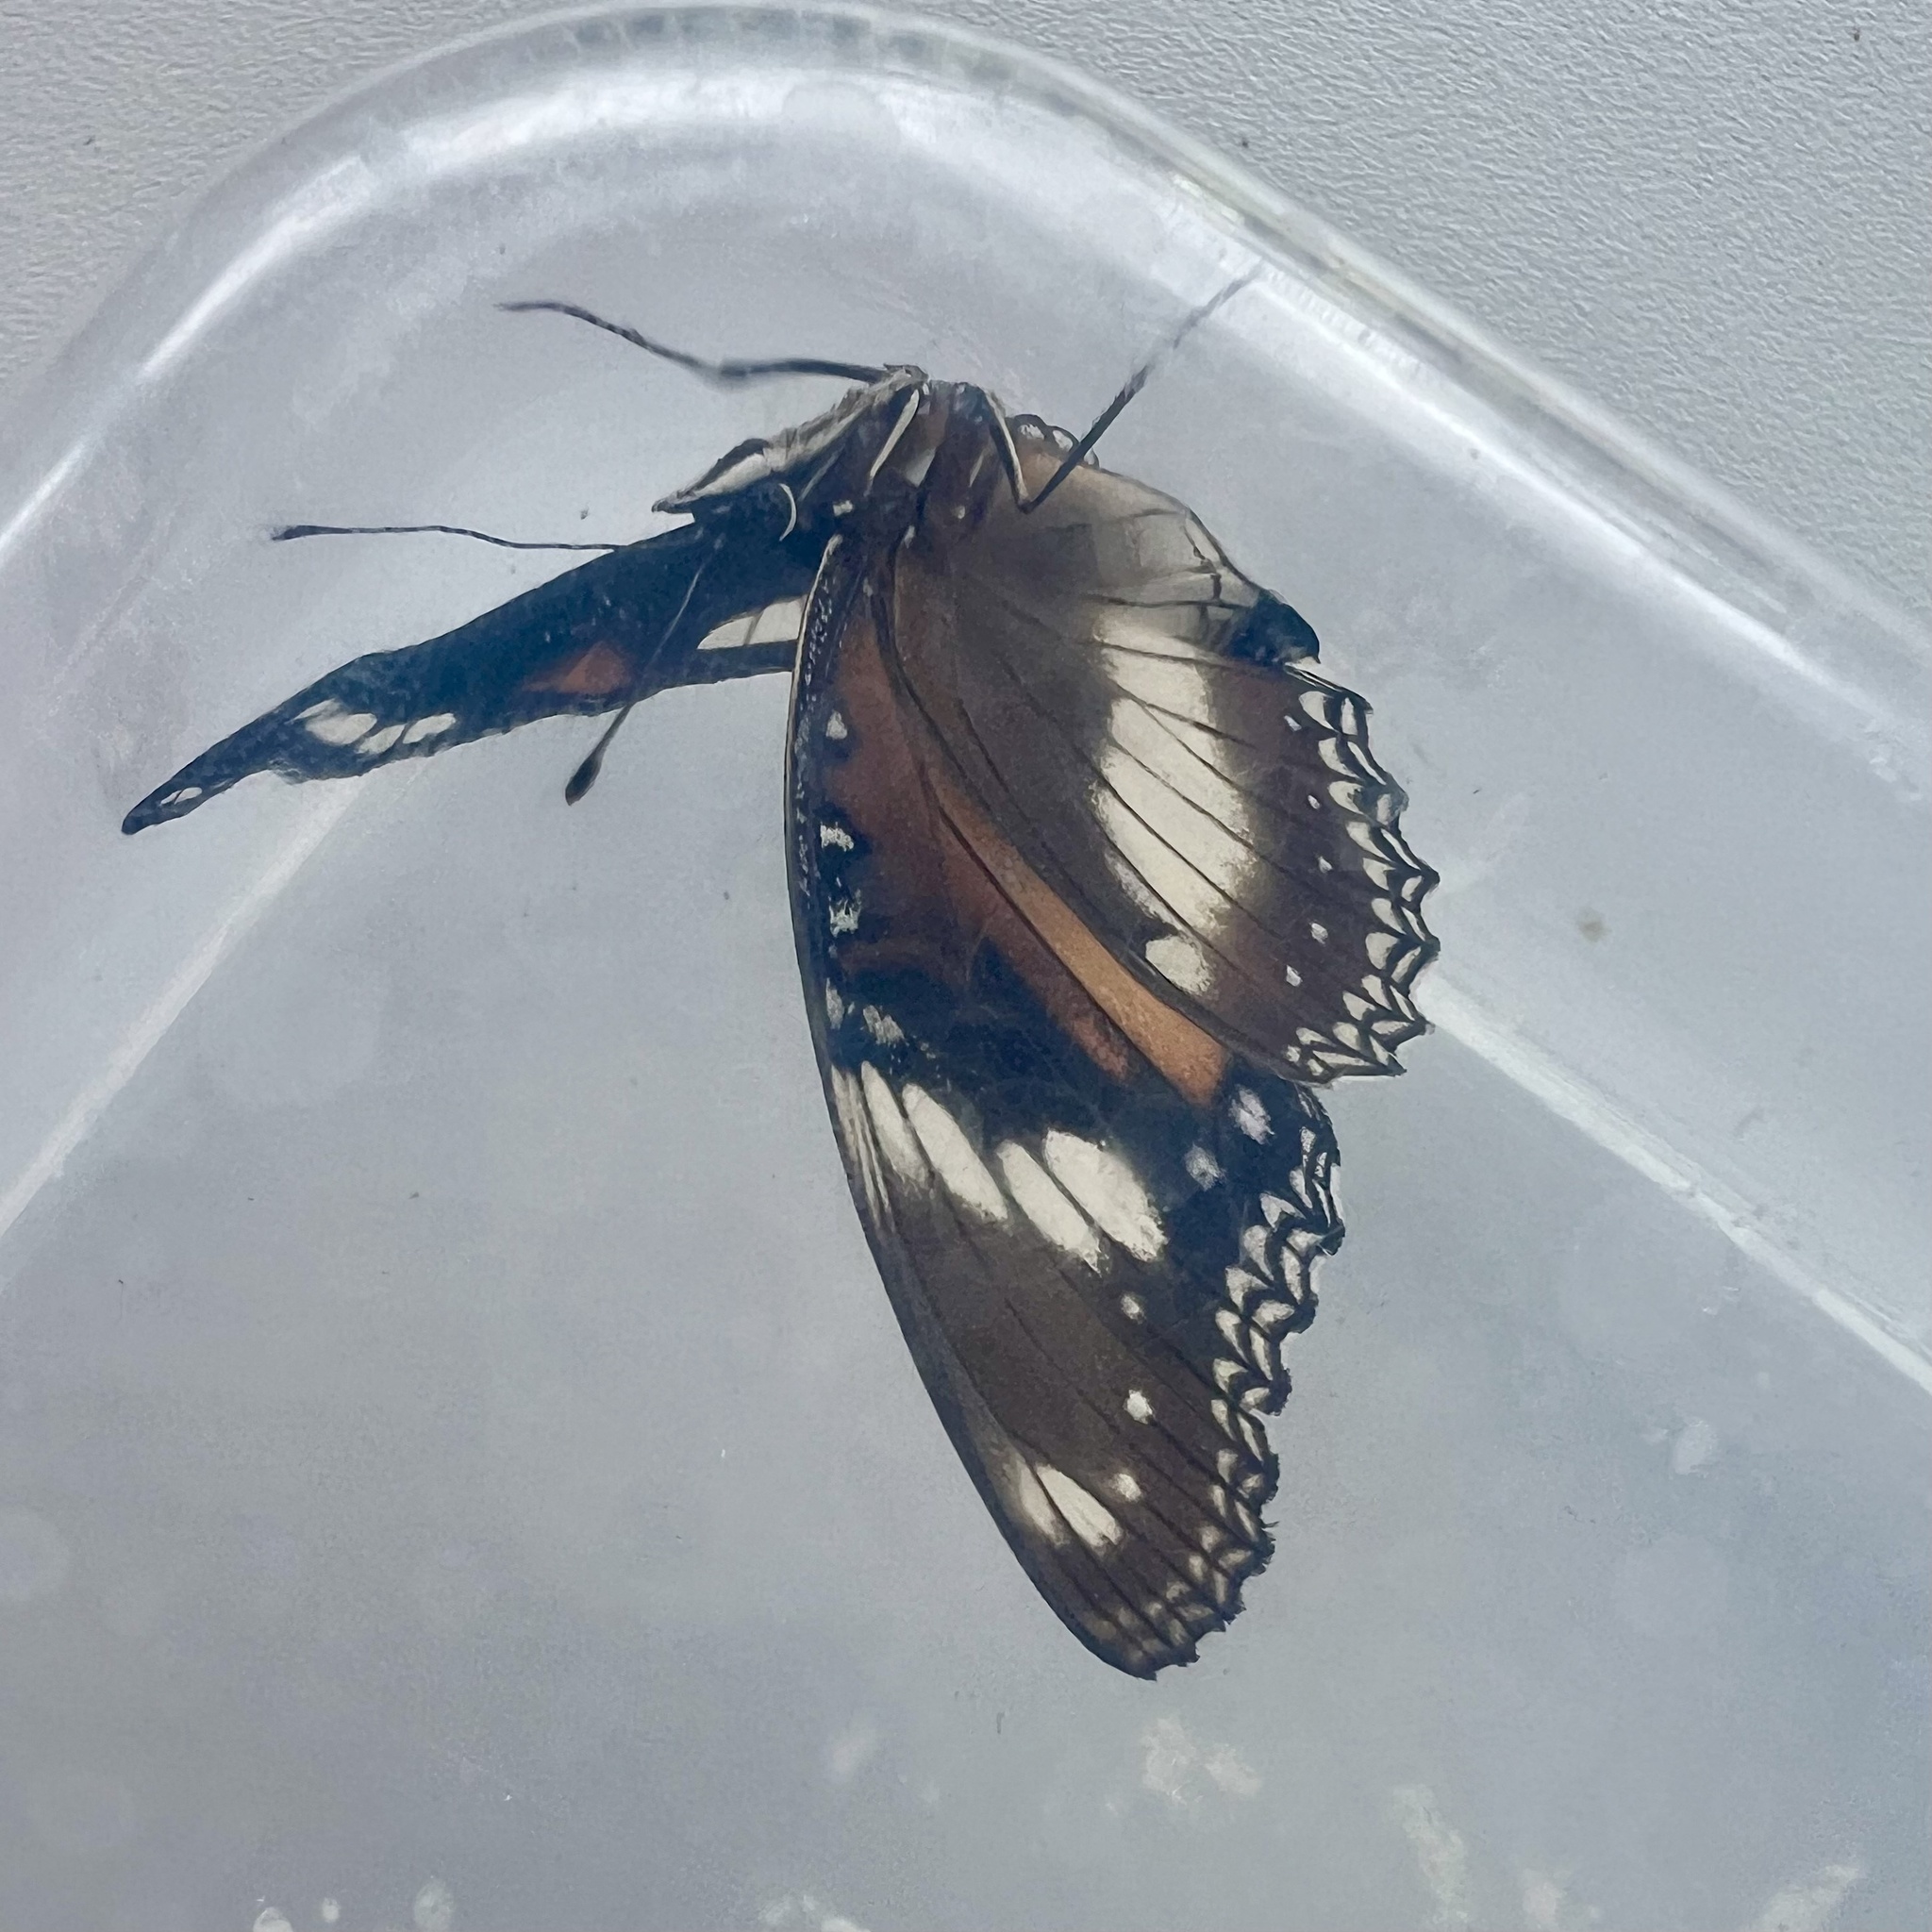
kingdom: Animalia
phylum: Arthropoda
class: Insecta
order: Lepidoptera
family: Nymphalidae
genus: Hypolimnas
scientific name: Hypolimnas bolina
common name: Great eggfly
